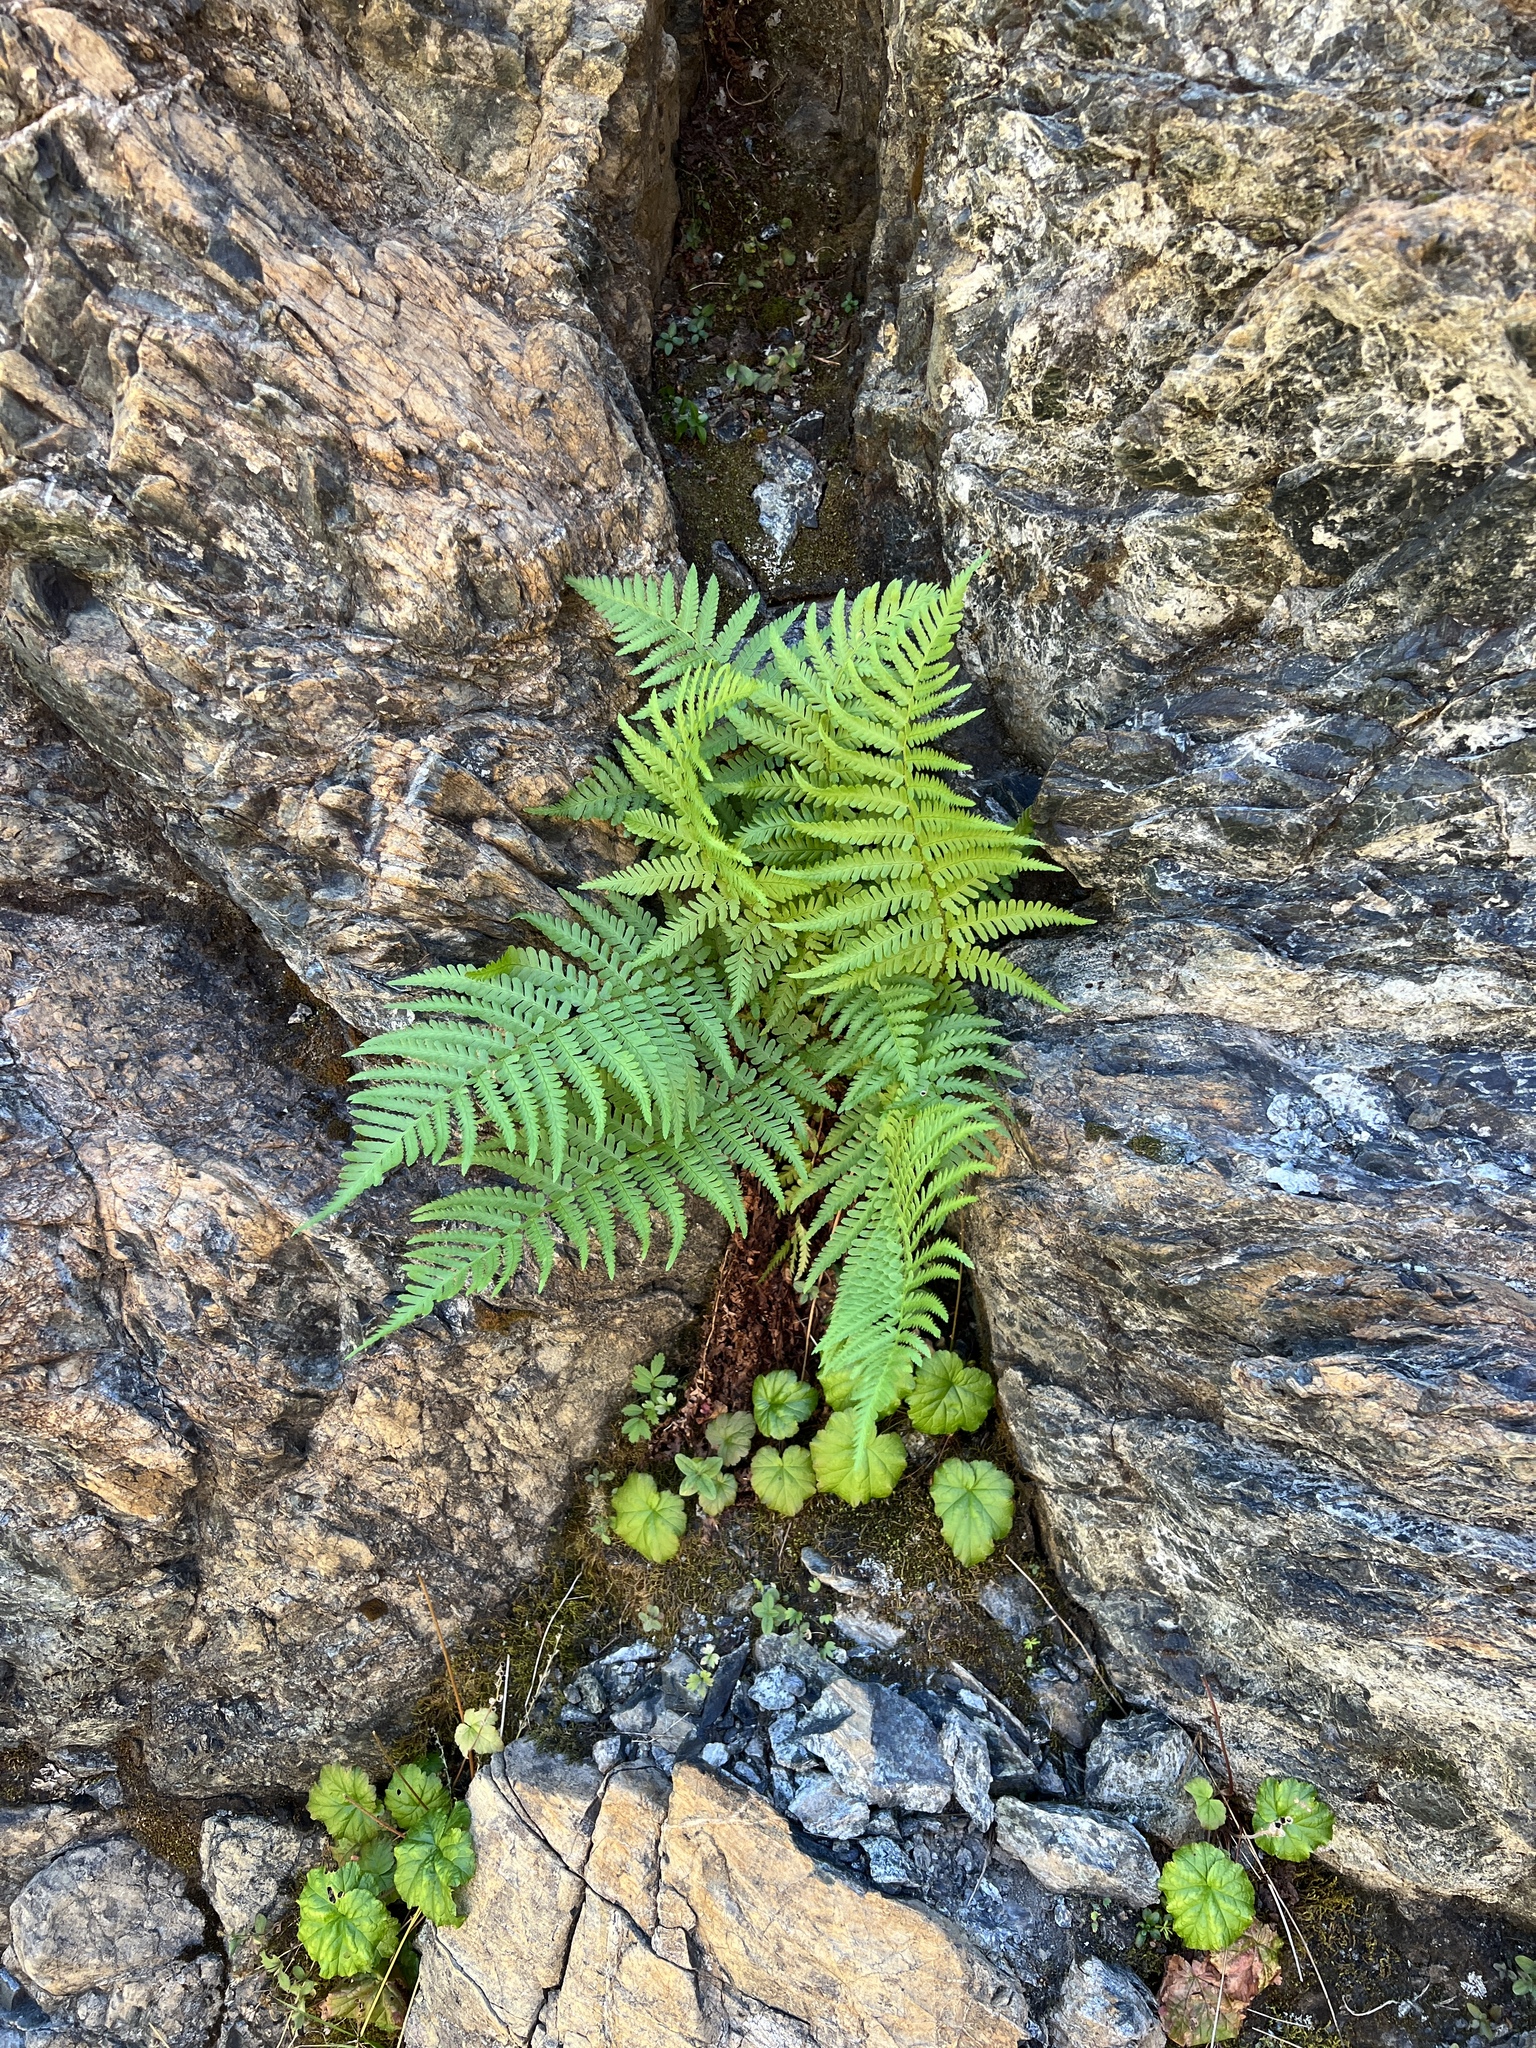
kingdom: Plantae
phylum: Tracheophyta
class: Polypodiopsida
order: Polypodiales
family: Dryopteridaceae
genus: Dryopteris
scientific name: Dryopteris filix-mas
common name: Male fern
